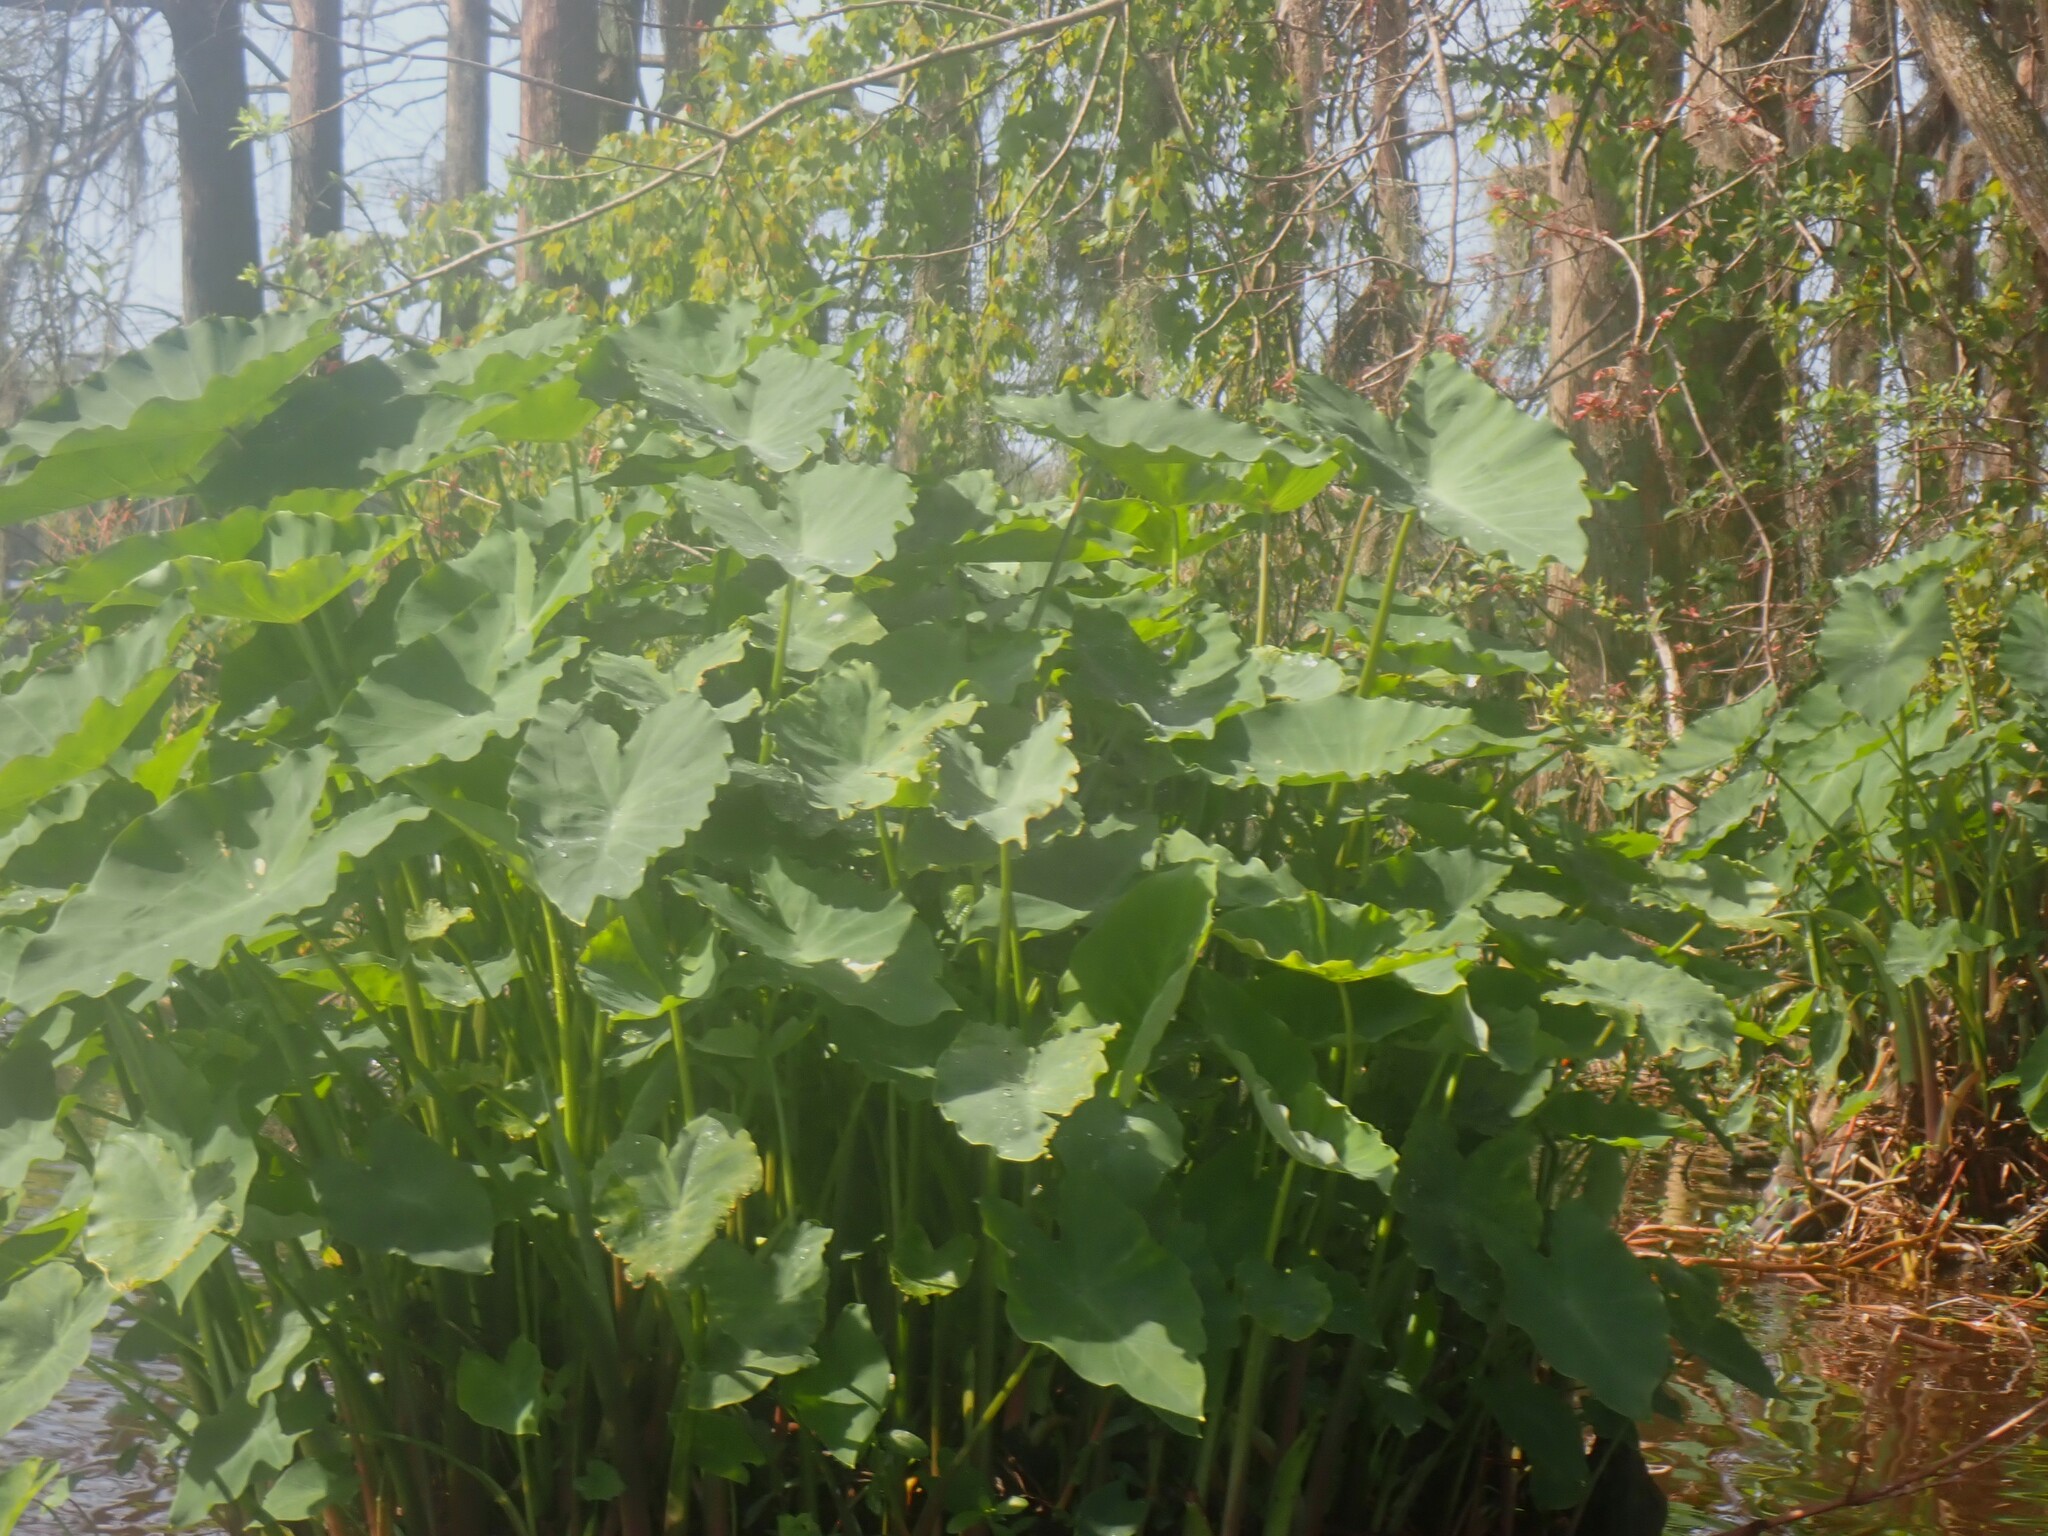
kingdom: Plantae
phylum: Tracheophyta
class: Liliopsida
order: Alismatales
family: Araceae
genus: Colocasia
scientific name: Colocasia esculenta
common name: Taro
